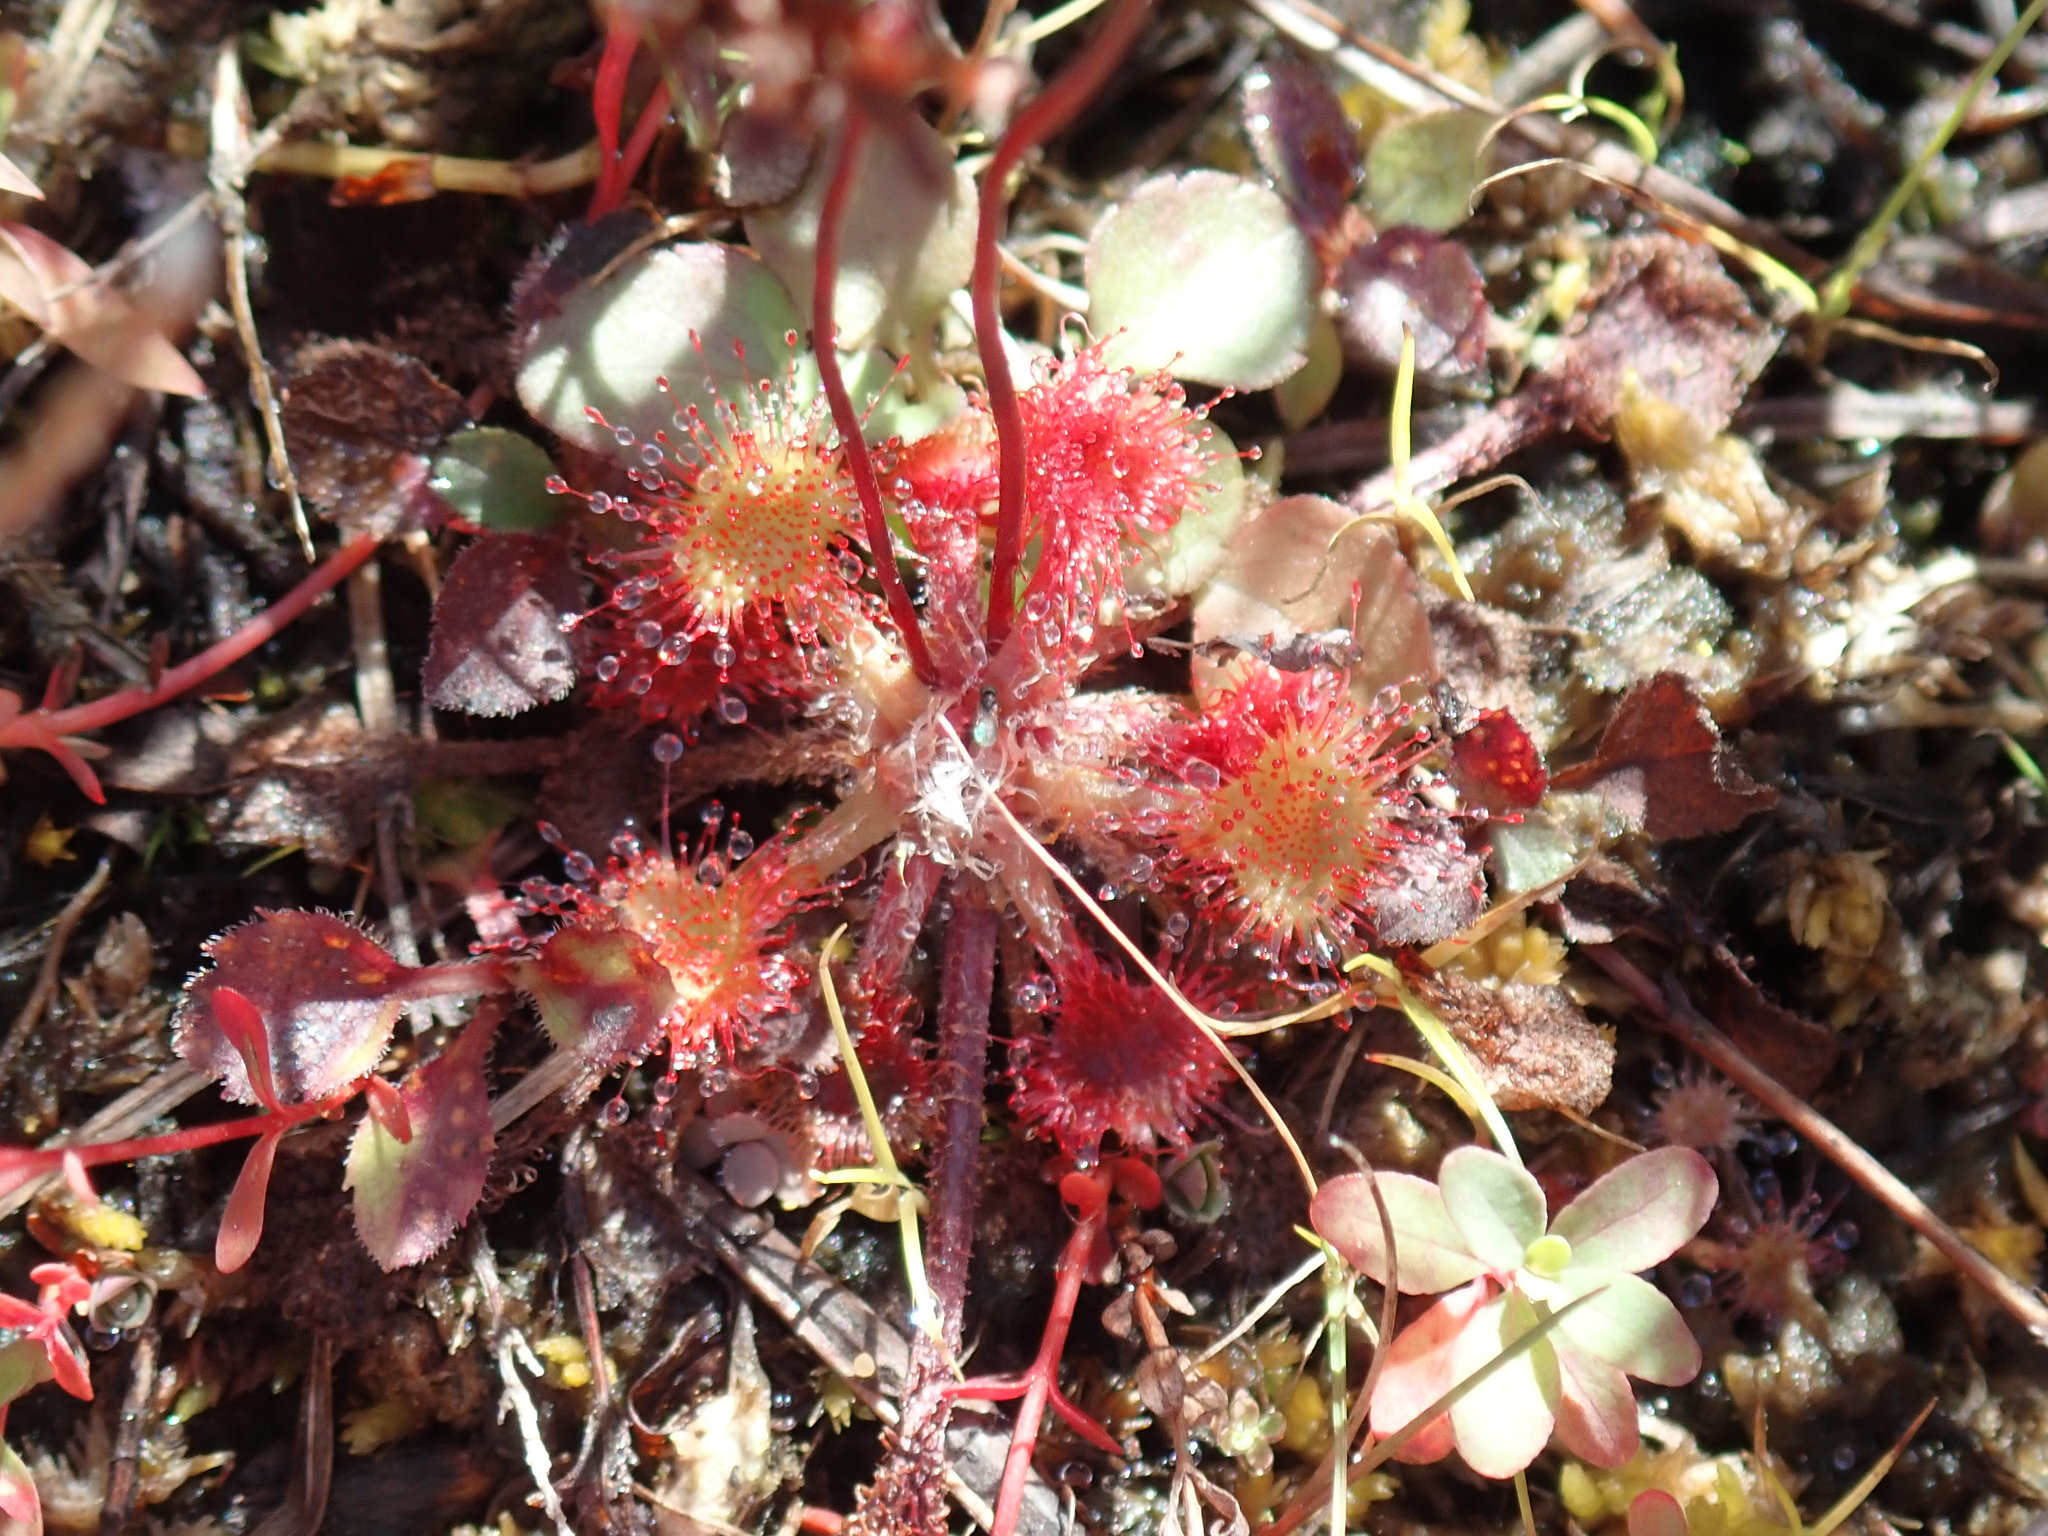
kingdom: Plantae
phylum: Tracheophyta
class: Magnoliopsida
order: Caryophyllales
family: Droseraceae
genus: Drosera
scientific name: Drosera rotundifolia
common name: Round-leaved sundew
